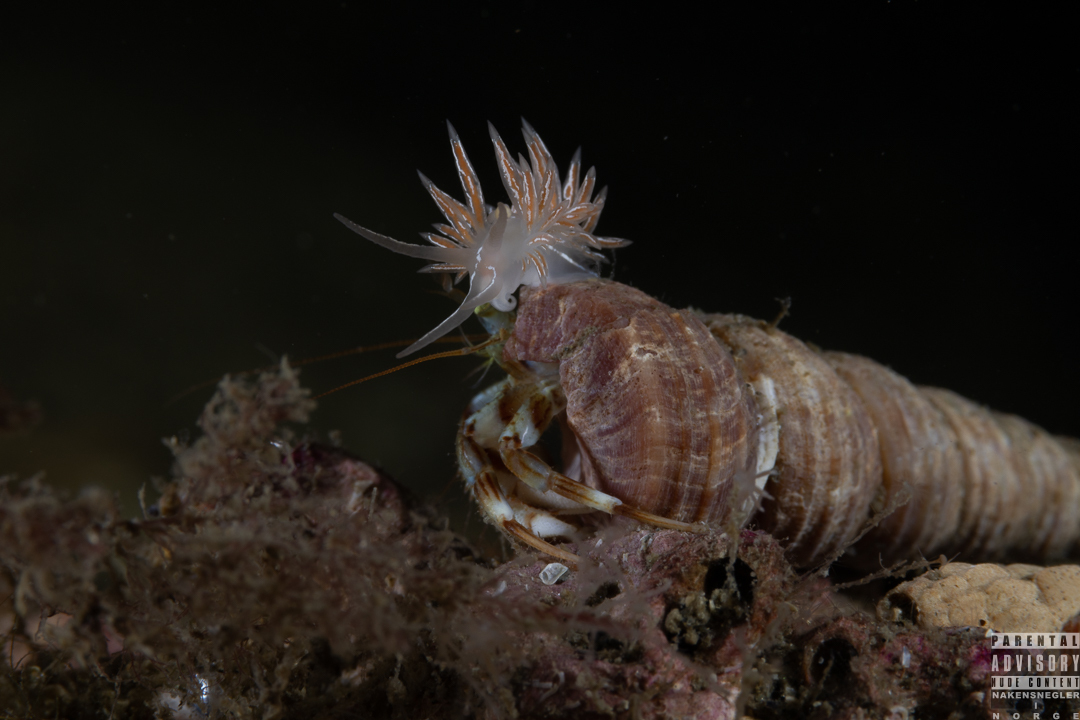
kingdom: Animalia
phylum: Mollusca
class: Gastropoda
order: Nudibranchia
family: Coryphellidae
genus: Coryphella
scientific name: Coryphella chriskaugei
